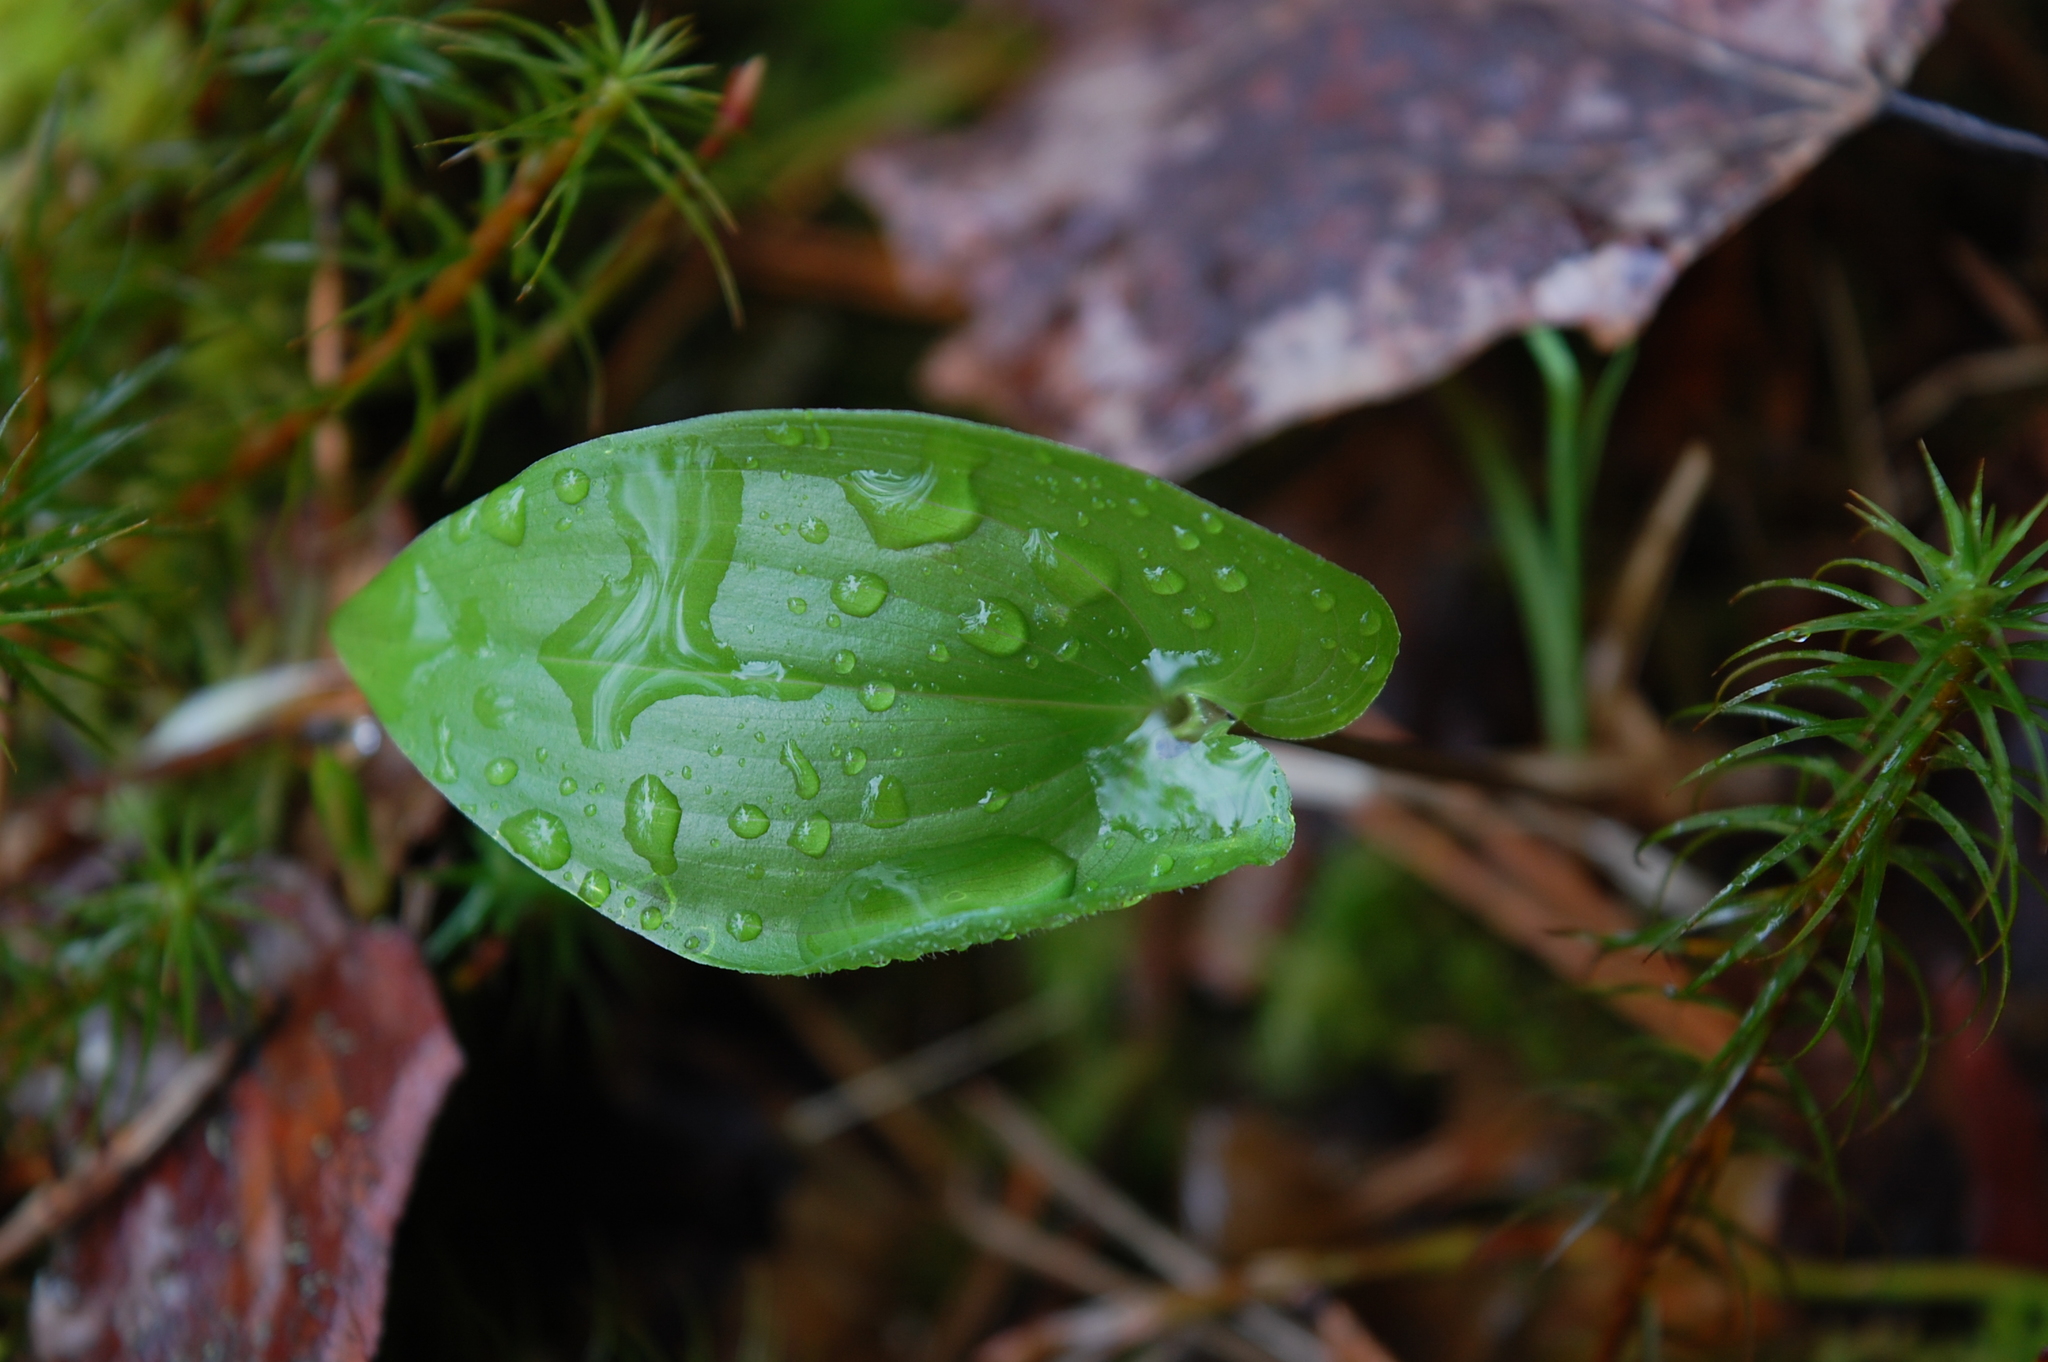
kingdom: Plantae
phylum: Tracheophyta
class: Liliopsida
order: Asparagales
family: Asparagaceae
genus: Maianthemum
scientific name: Maianthemum bifolium
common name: May lily
